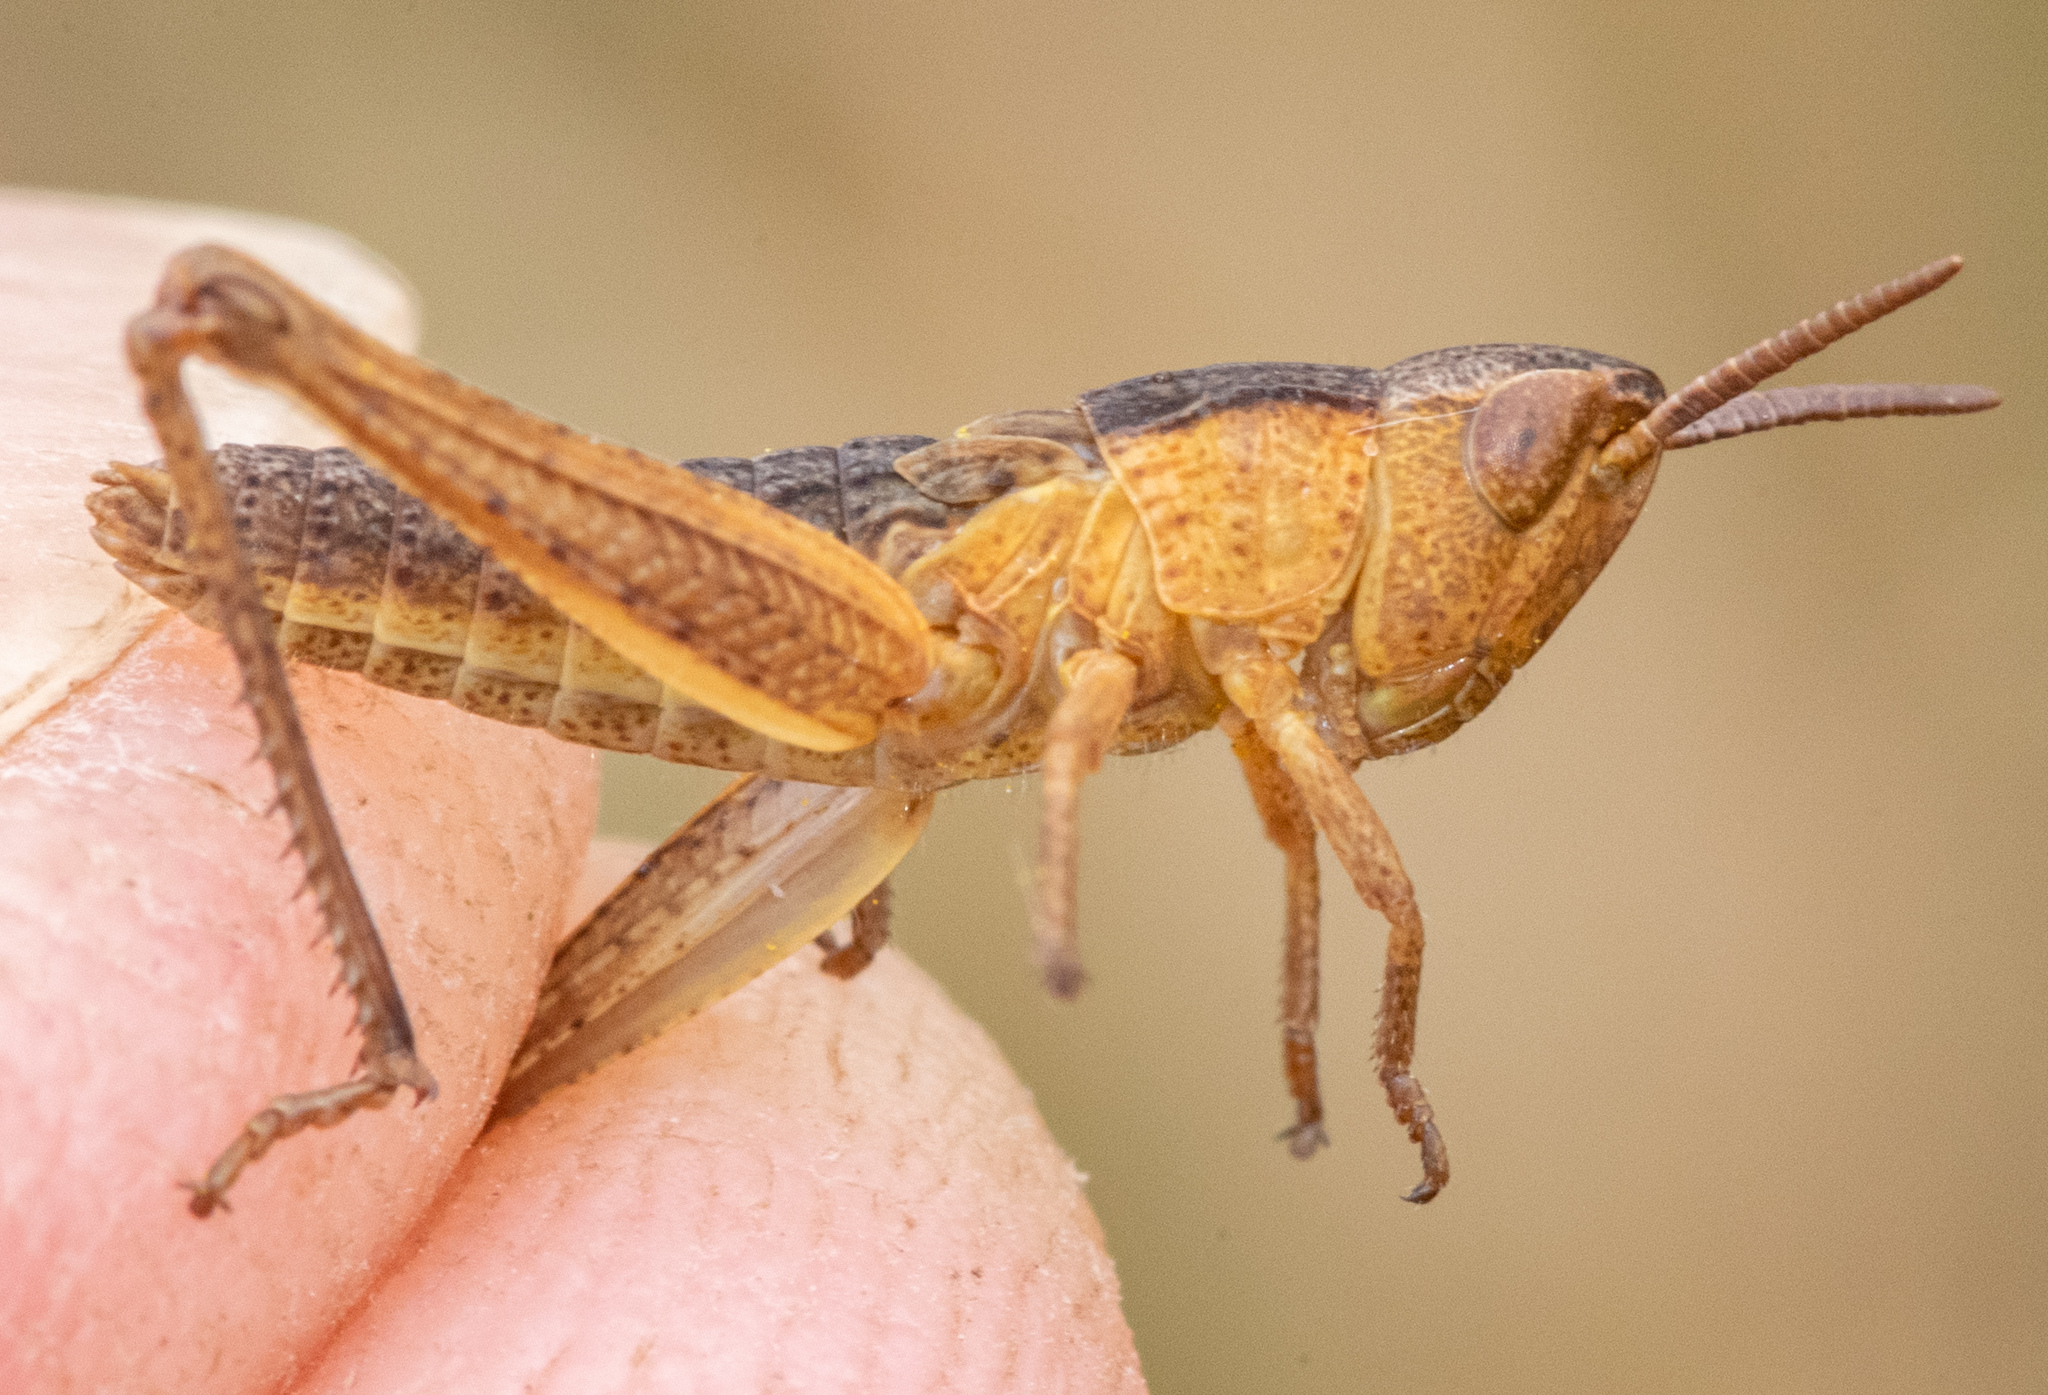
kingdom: Animalia
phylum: Arthropoda
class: Insecta
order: Orthoptera
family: Acrididae
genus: Pseudochorthippus
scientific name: Pseudochorthippus curtipennis
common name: Marsh meadow grasshopper
